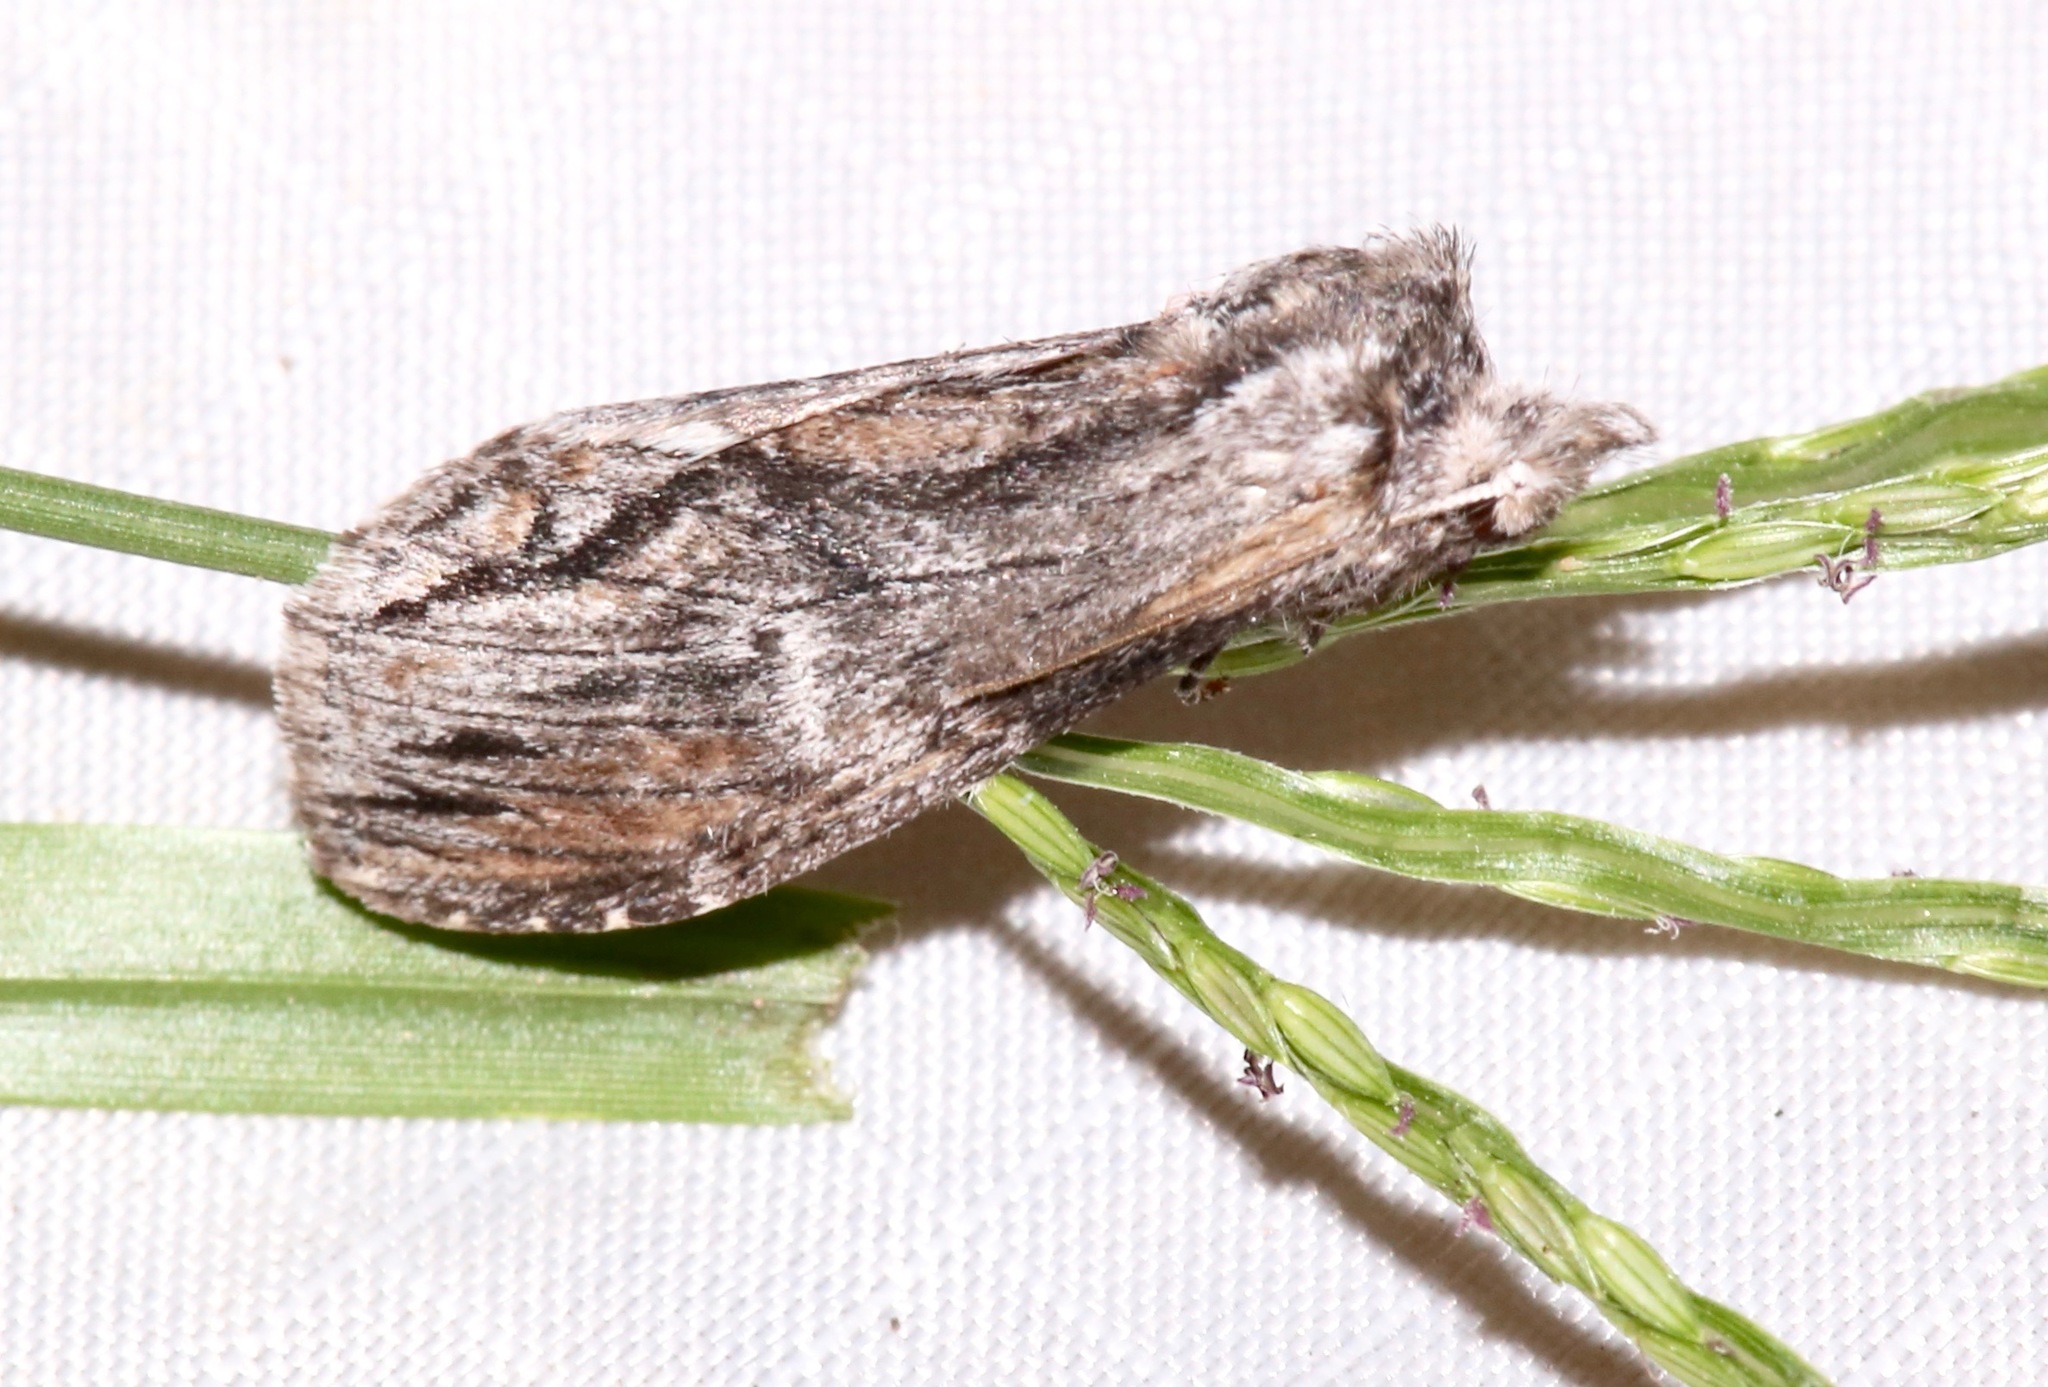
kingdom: Animalia
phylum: Arthropoda
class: Insecta
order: Lepidoptera
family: Notodontidae
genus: Notela
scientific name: Notela jaliscana
